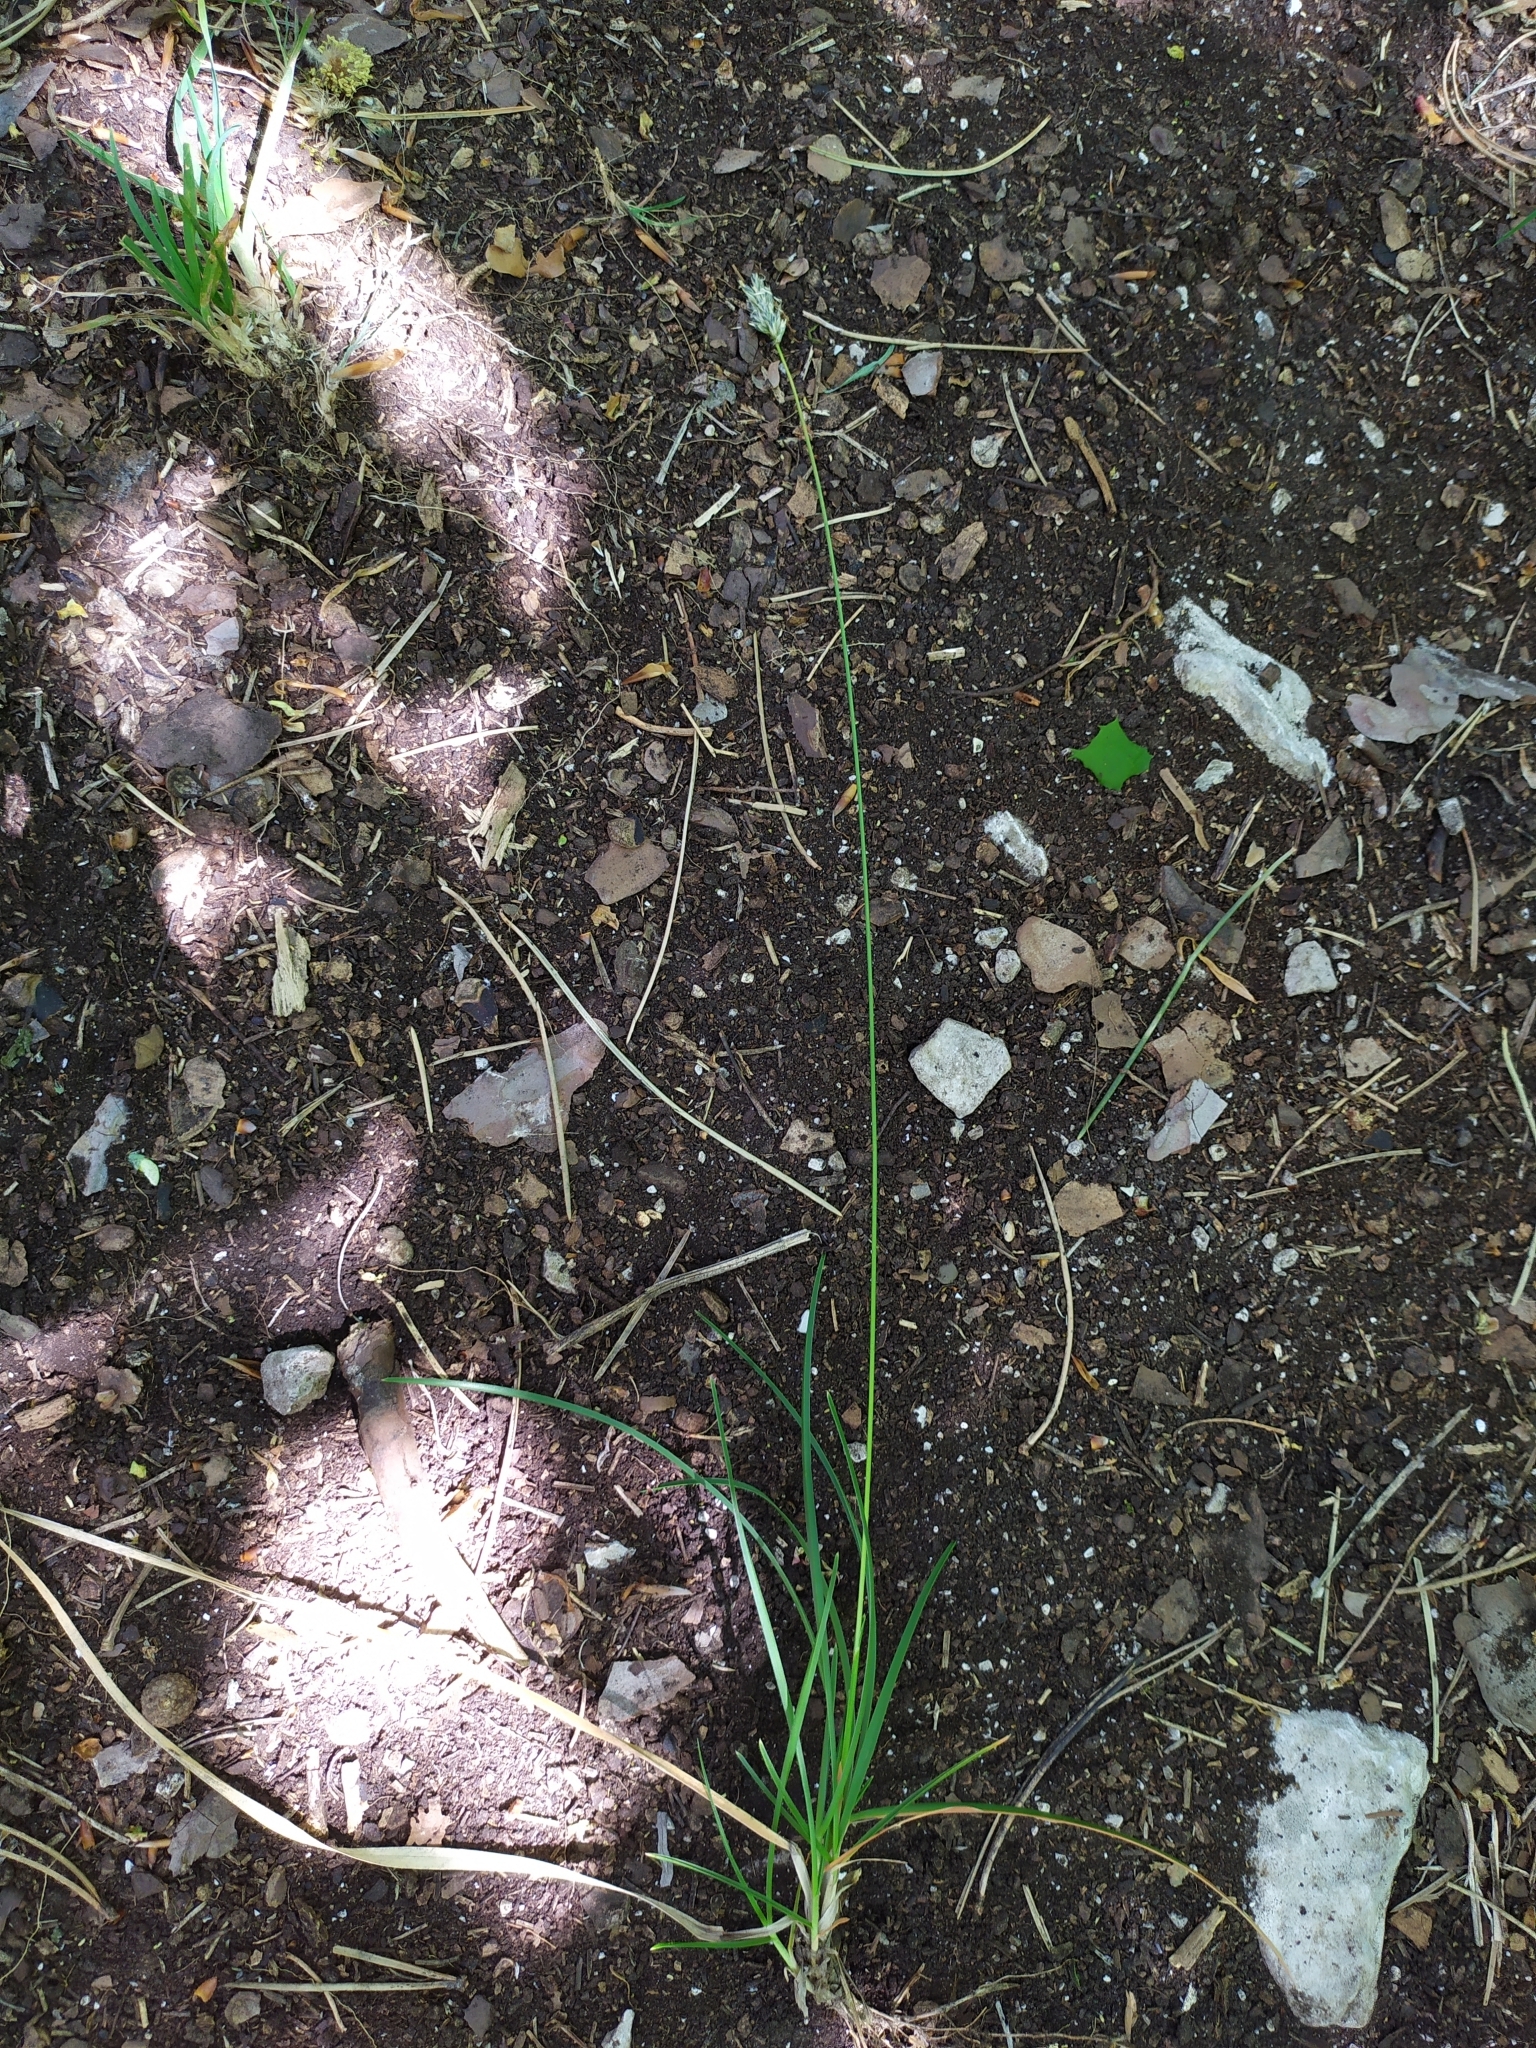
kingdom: Plantae
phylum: Tracheophyta
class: Liliopsida
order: Poales
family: Poaceae
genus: Sesleria
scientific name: Sesleria albicans
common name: Blue moor-grass
